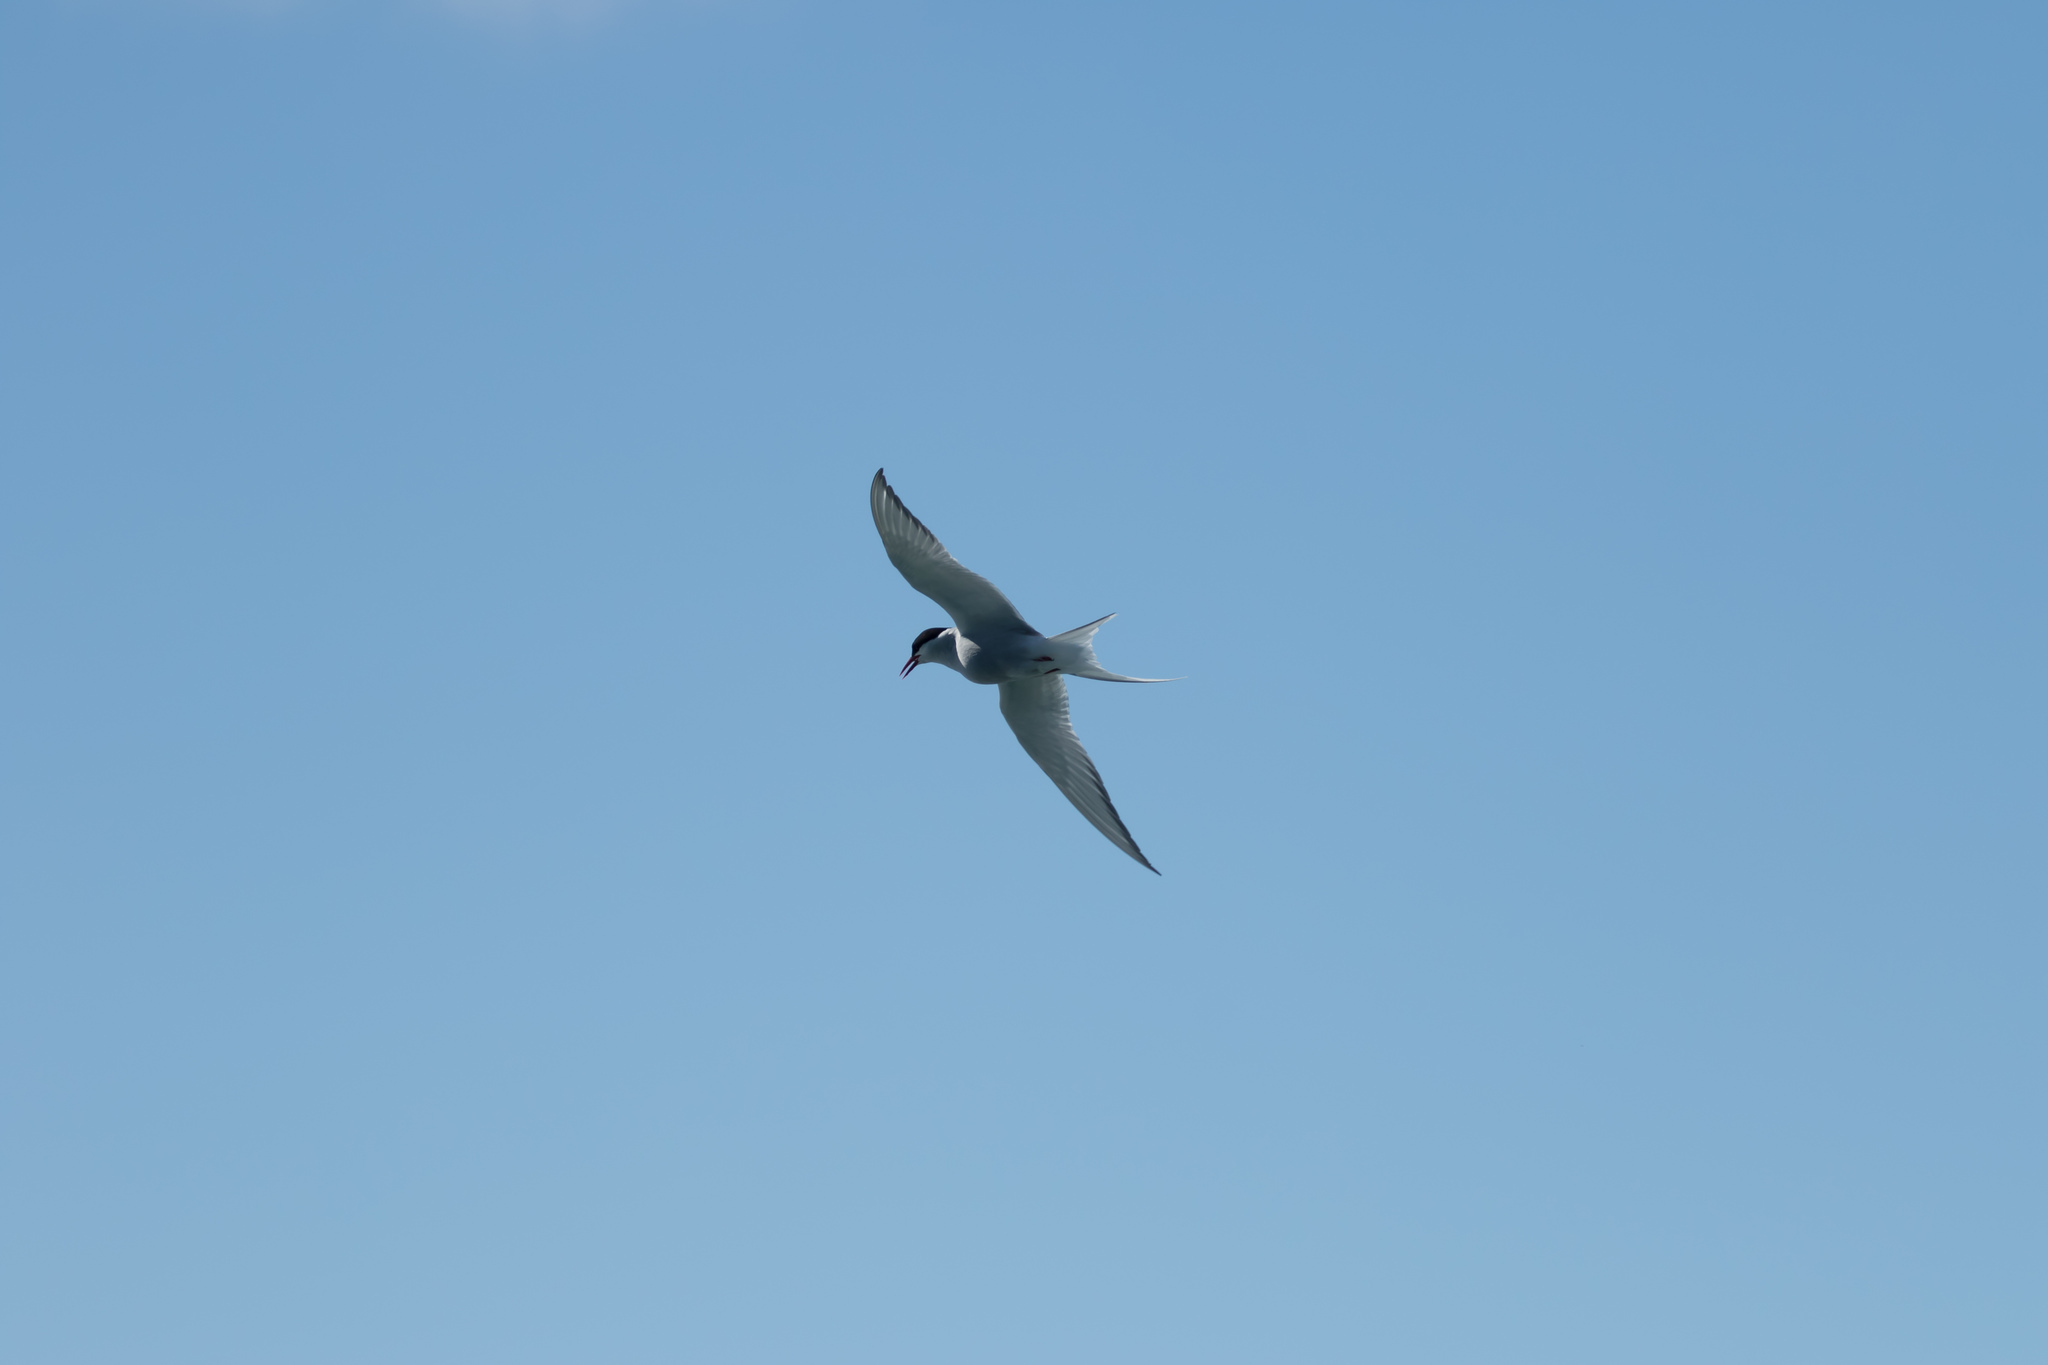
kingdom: Animalia
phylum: Chordata
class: Aves
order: Charadriiformes
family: Laridae
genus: Sterna
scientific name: Sterna paradisaea
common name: Arctic tern
